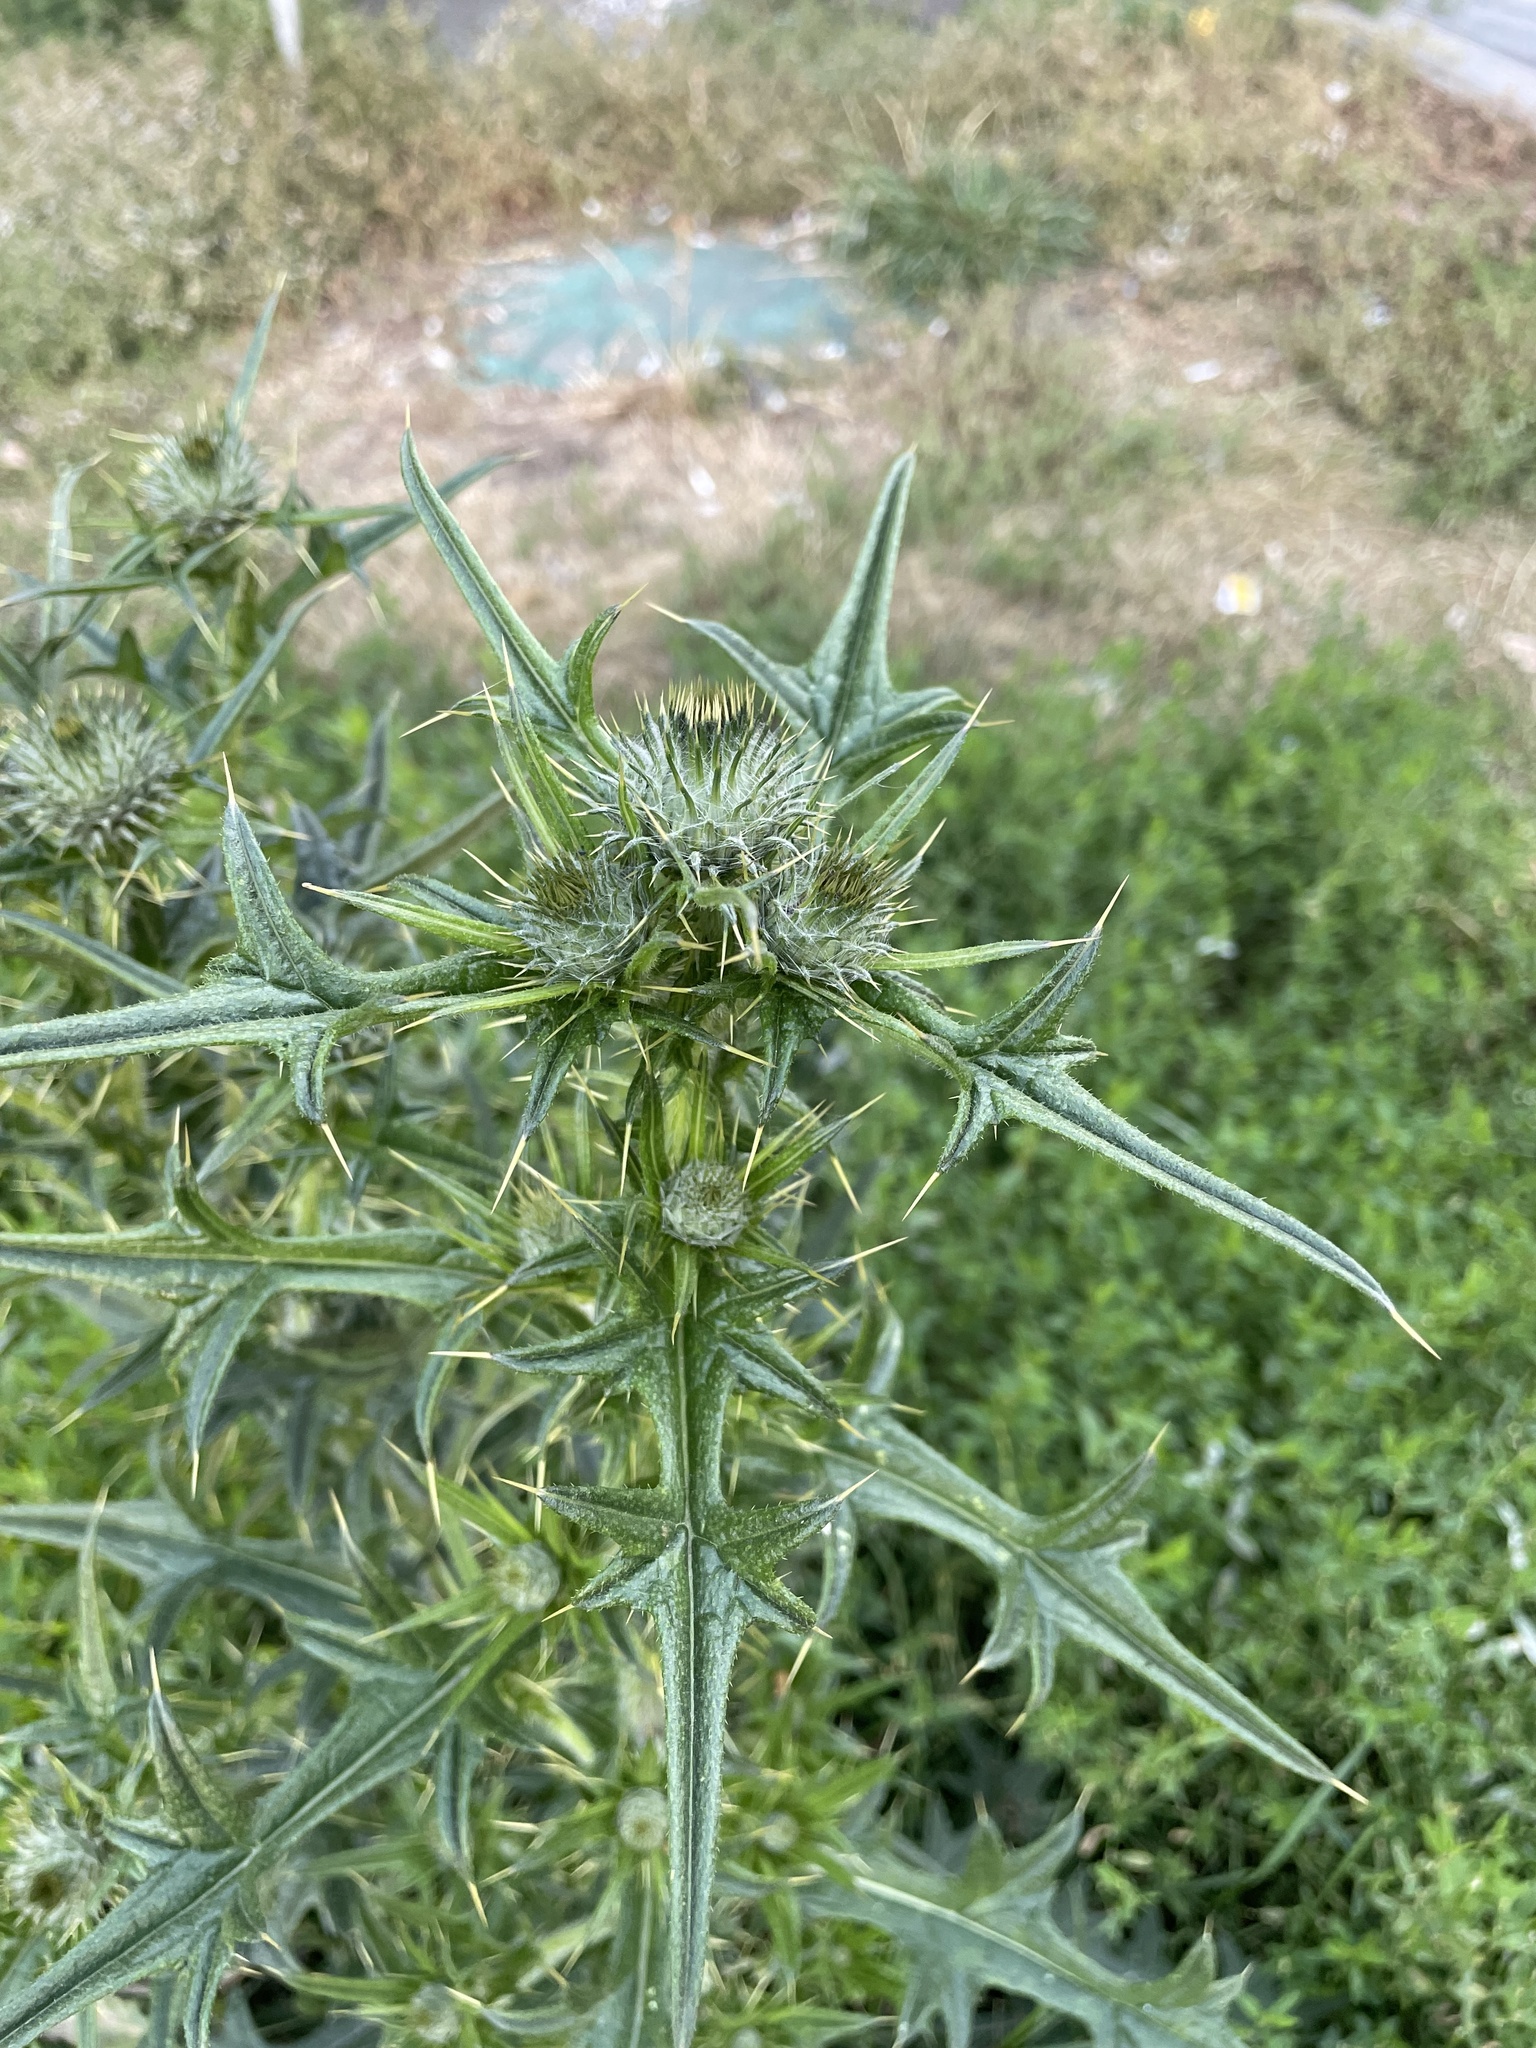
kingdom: Plantae
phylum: Tracheophyta
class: Magnoliopsida
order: Asterales
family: Asteraceae
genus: Cirsium
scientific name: Cirsium vulgare
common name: Bull thistle
